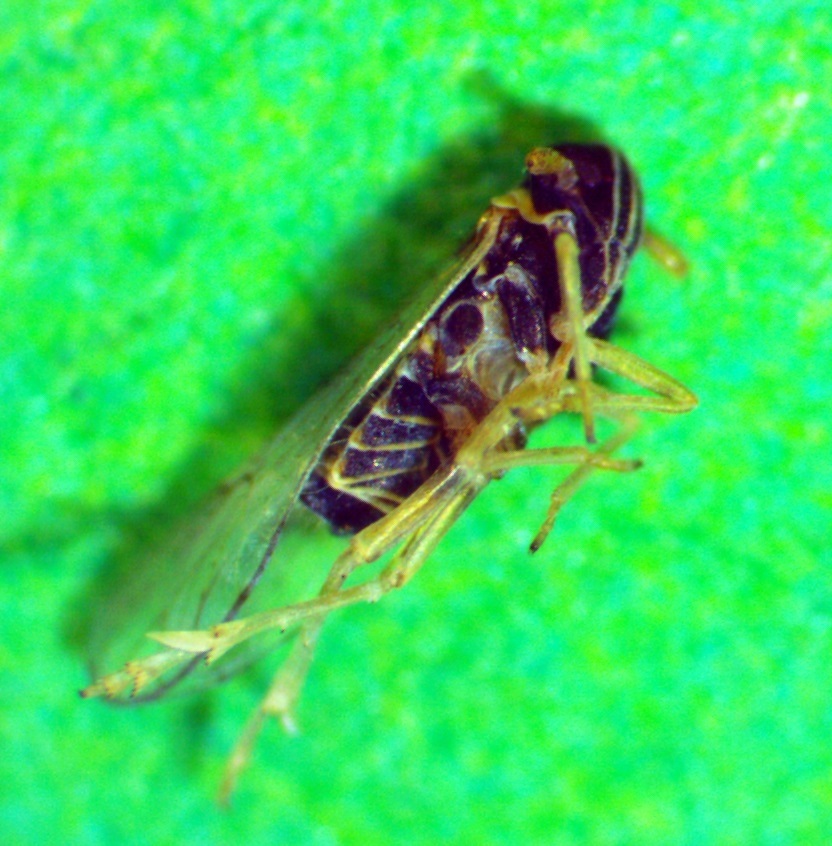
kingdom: Animalia
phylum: Arthropoda
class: Insecta
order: Hemiptera
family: Delphacidae
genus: Chionomus
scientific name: Chionomus
